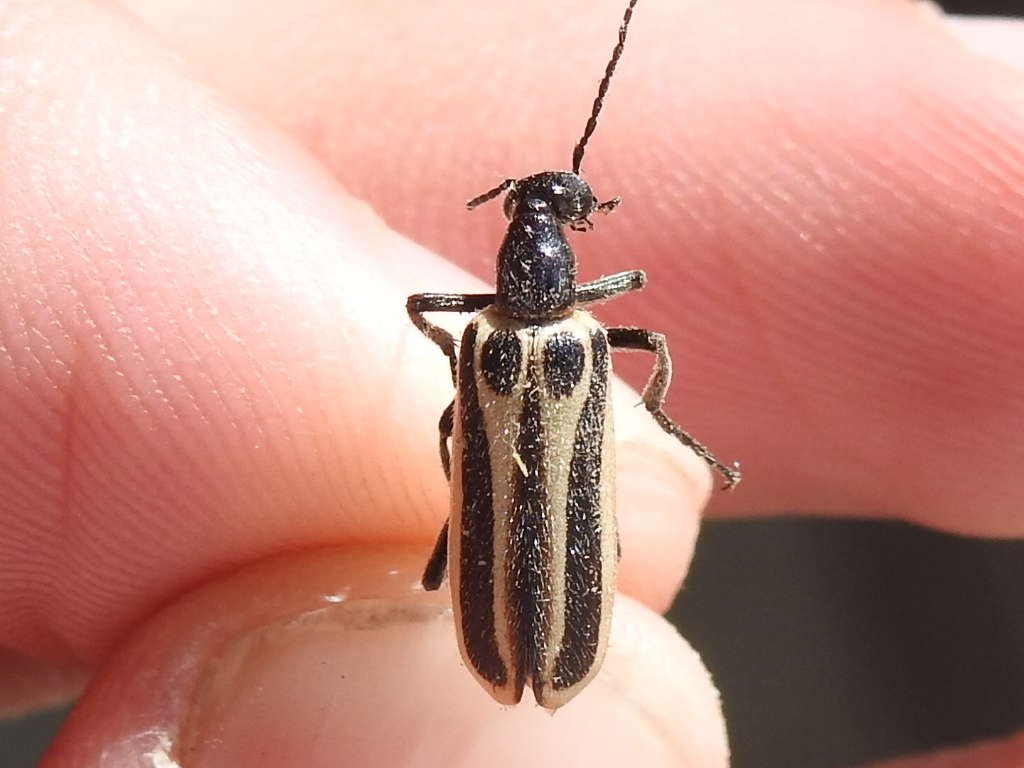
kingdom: Animalia
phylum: Arthropoda
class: Insecta
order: Coleoptera
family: Meloidae
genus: Pyrota
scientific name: Pyrota invita
